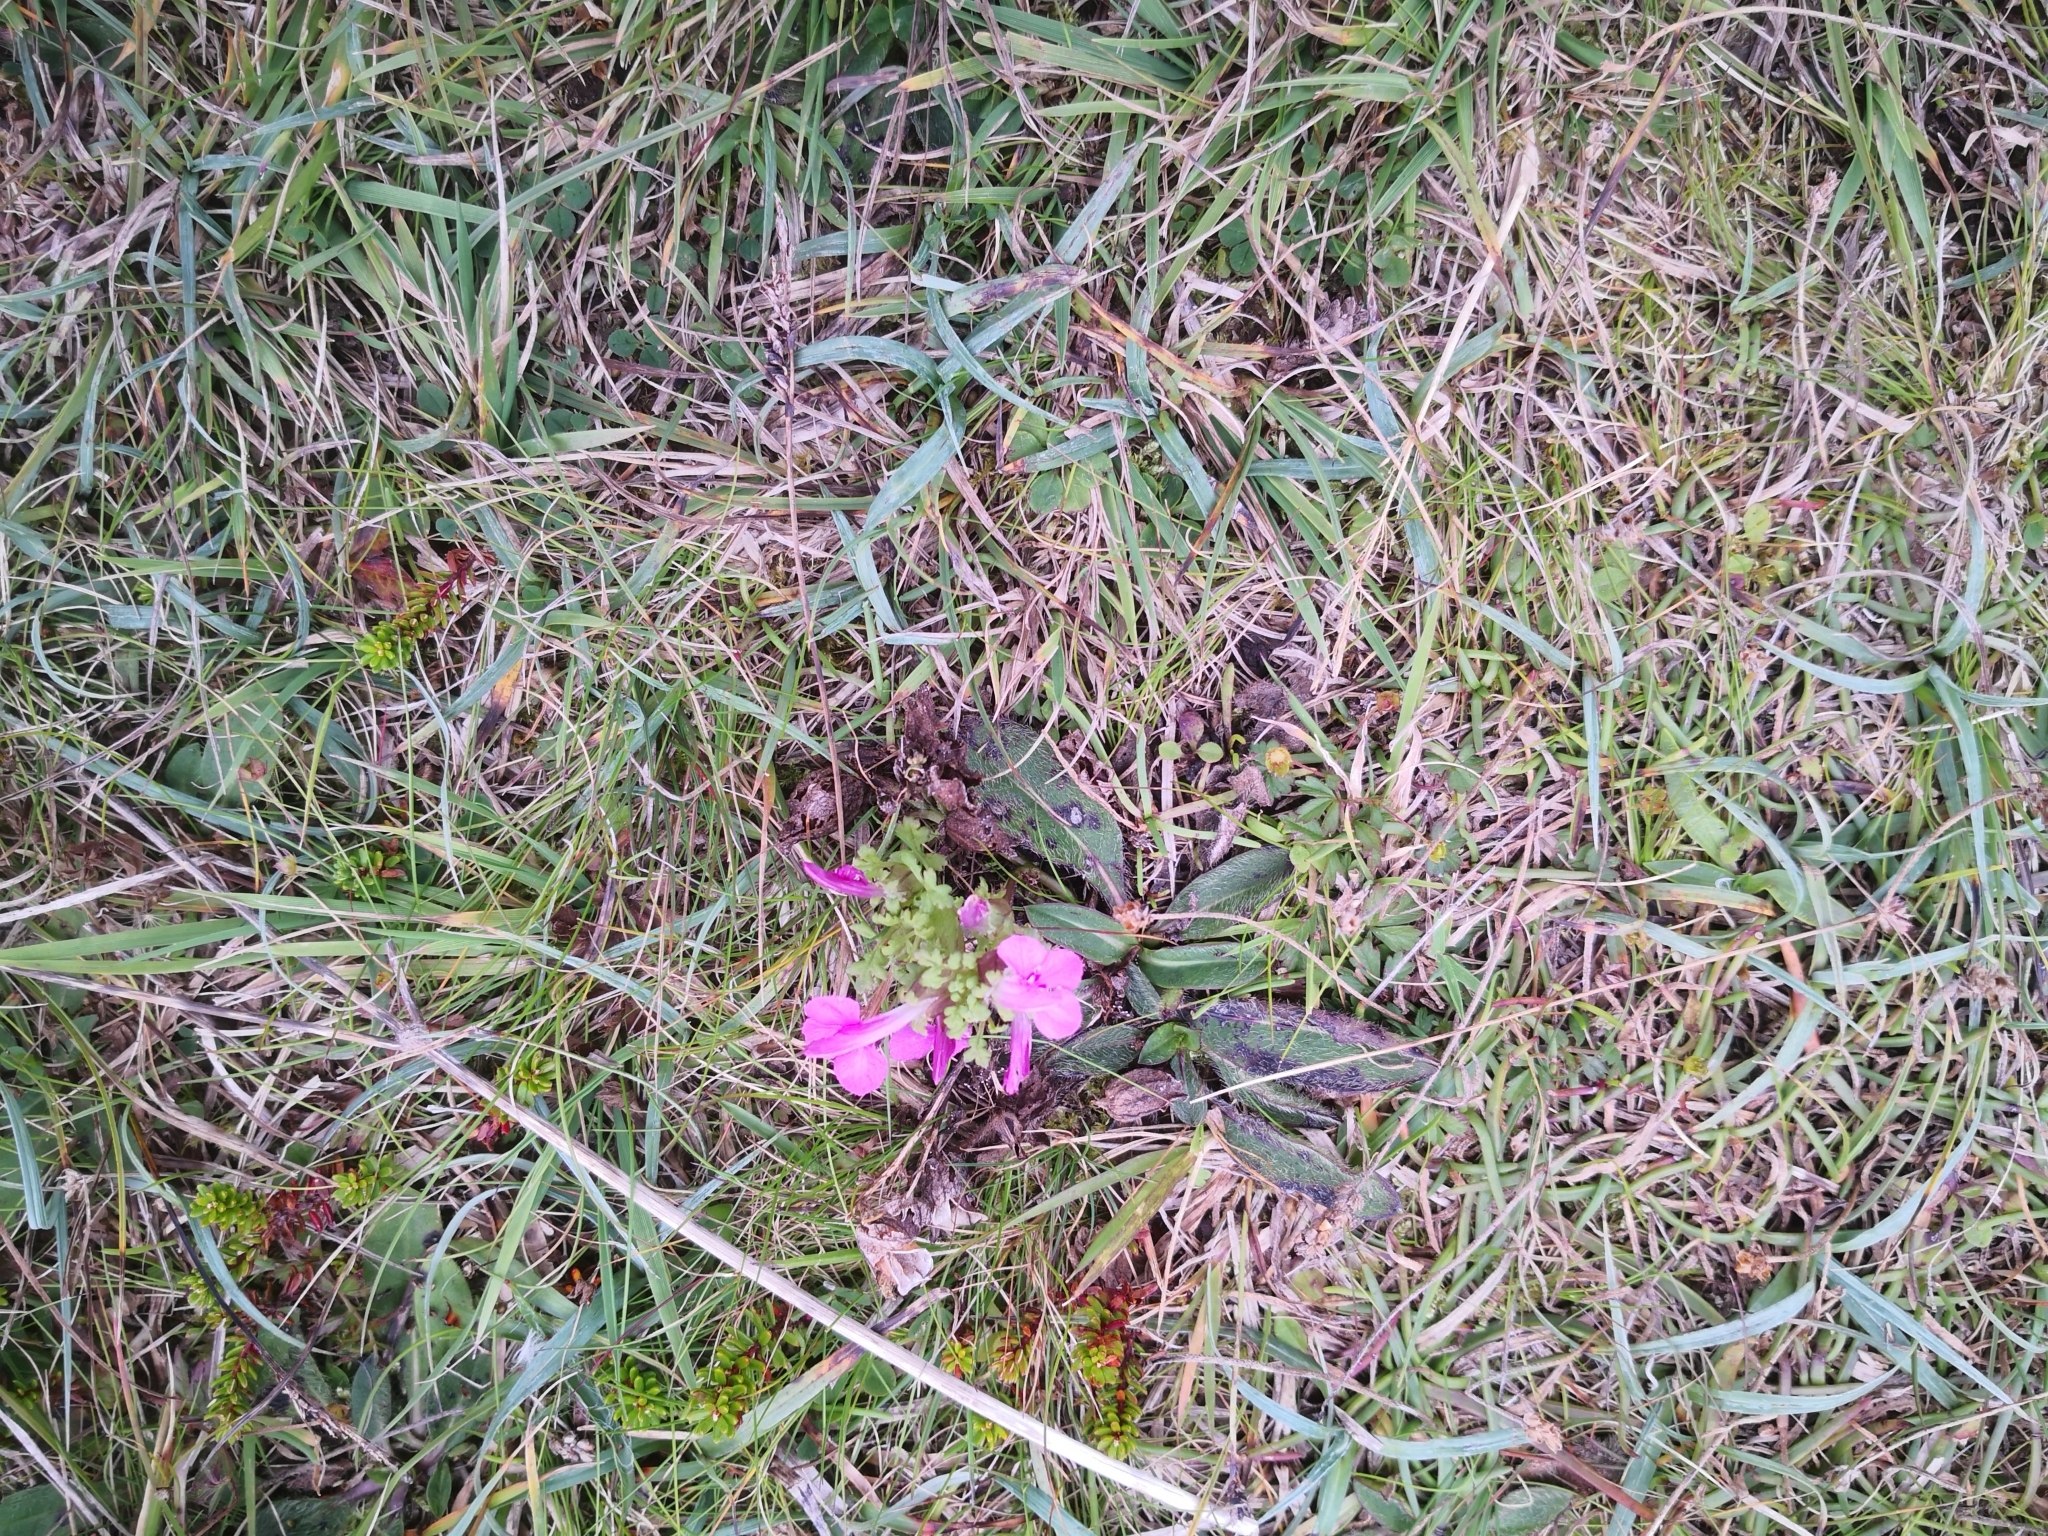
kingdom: Plantae
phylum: Tracheophyta
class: Magnoliopsida
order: Lamiales
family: Orobanchaceae
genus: Pedicularis
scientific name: Pedicularis sylvatica
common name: Lousewort
